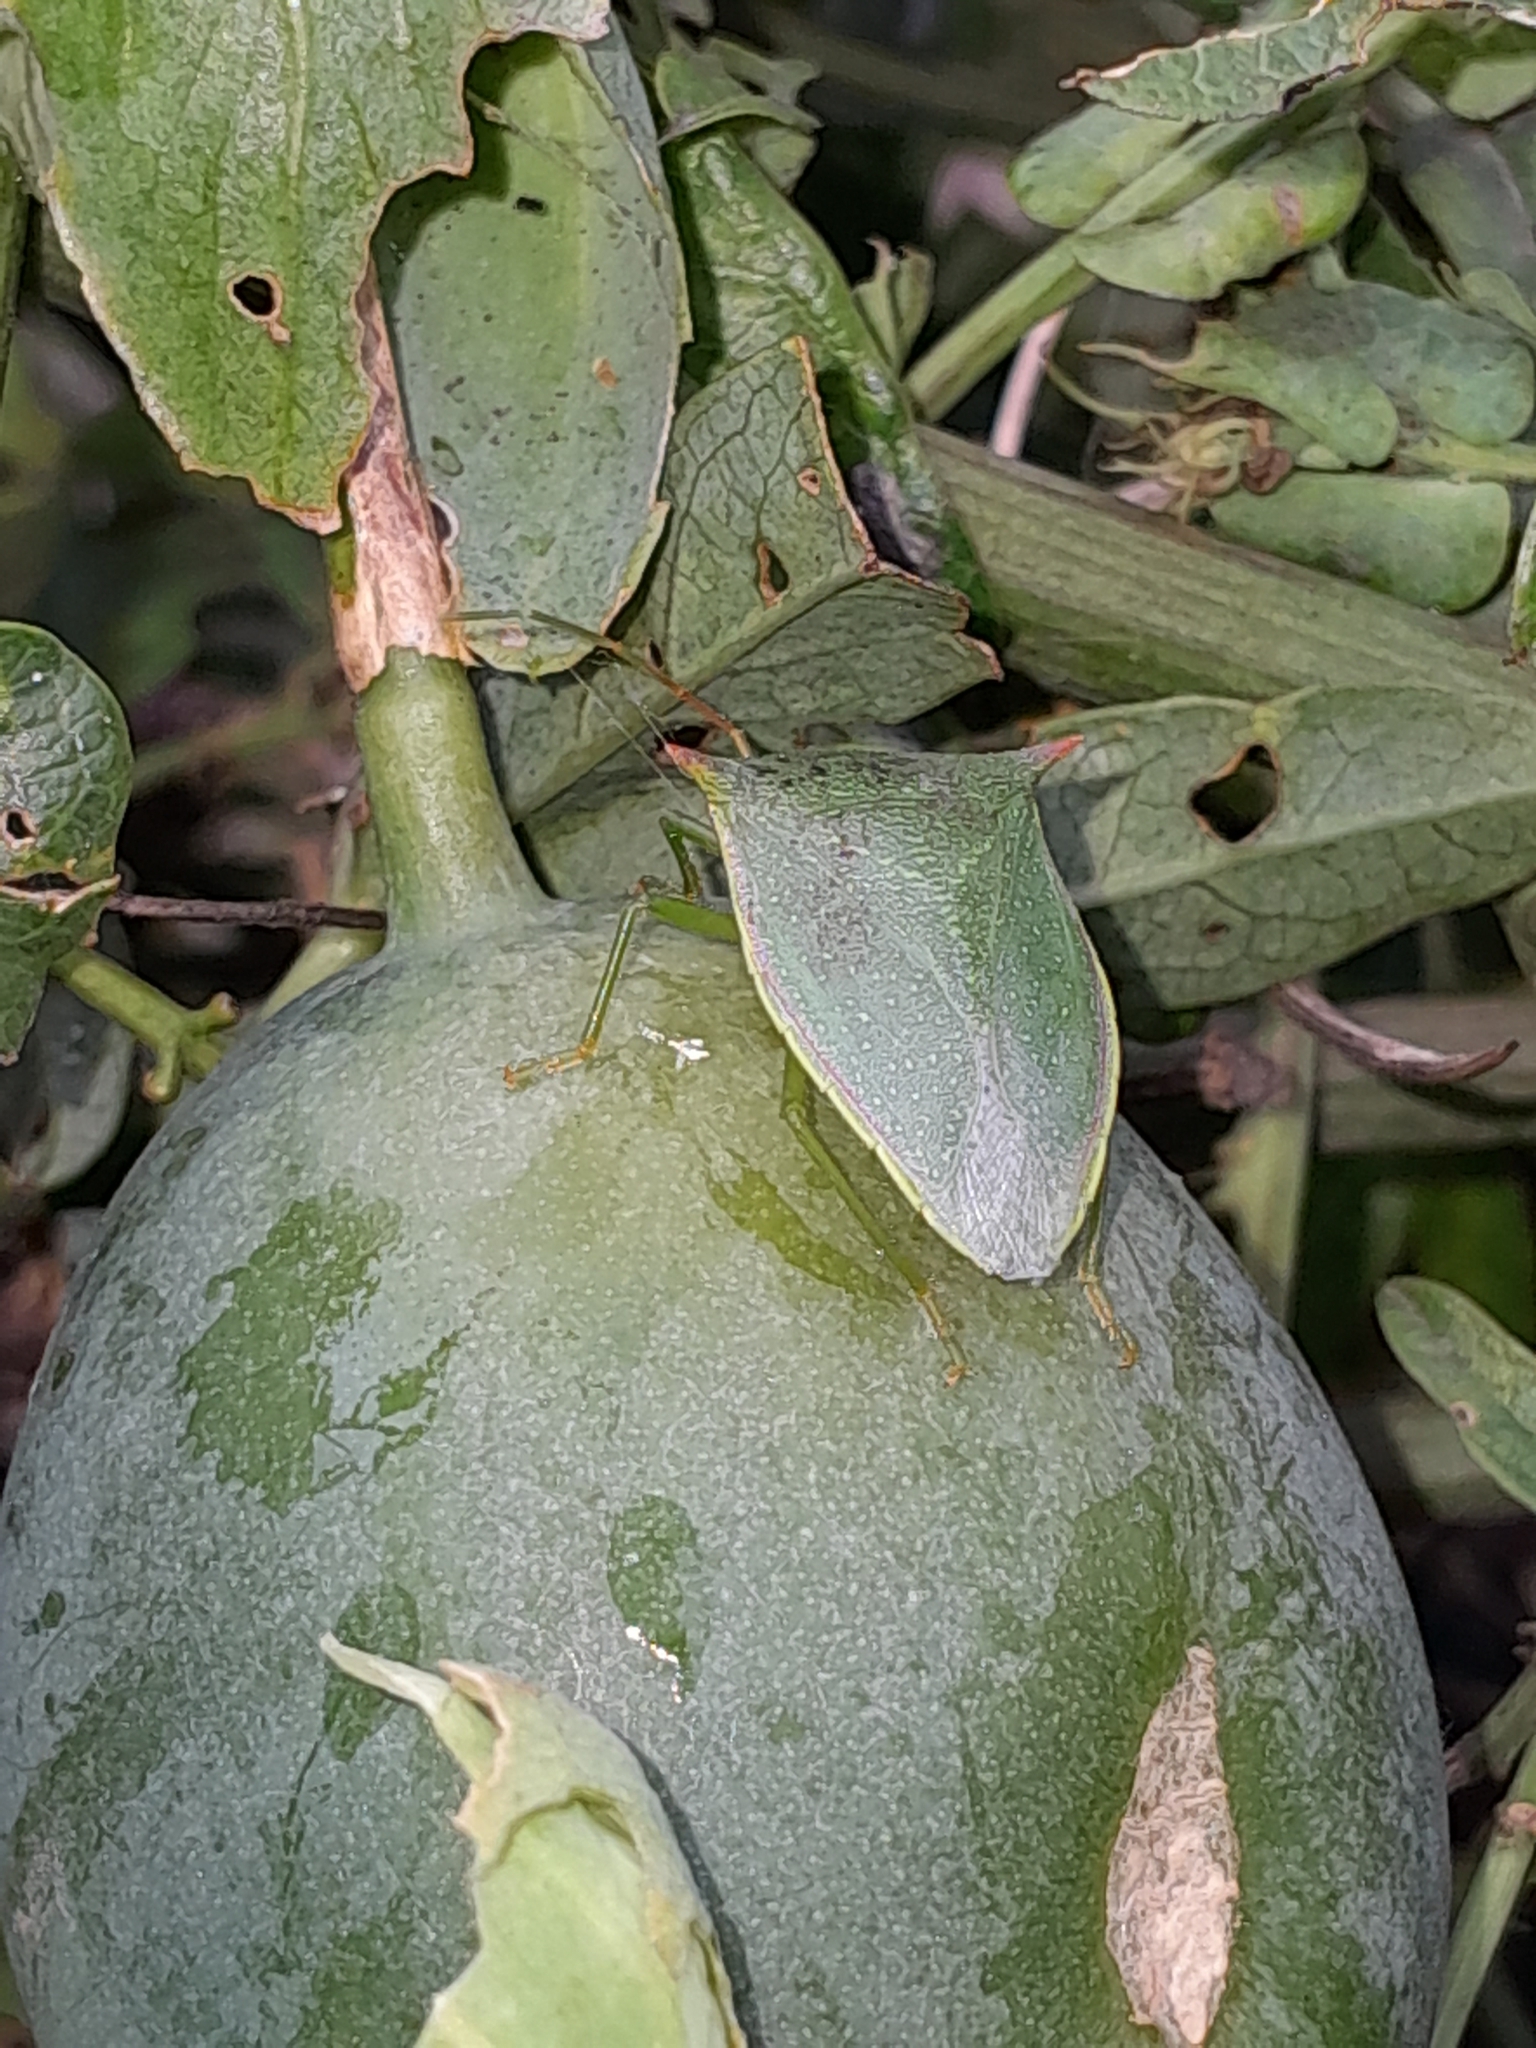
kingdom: Animalia
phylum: Arthropoda
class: Insecta
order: Hemiptera
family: Pentatomidae
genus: Loxa
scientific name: Loxa deducta
